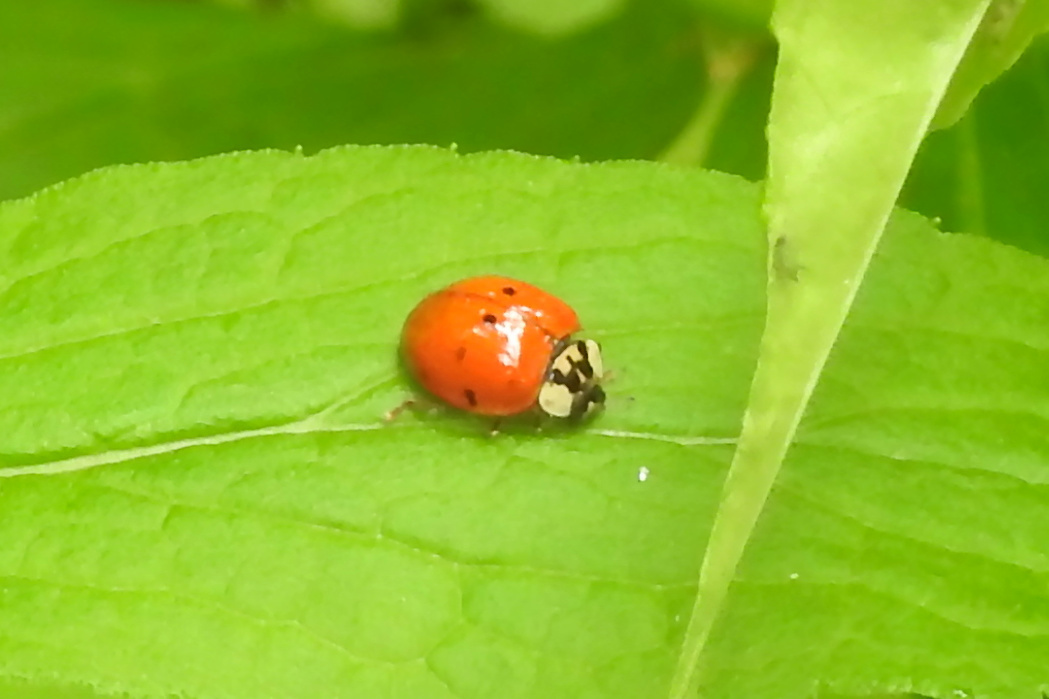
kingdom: Animalia
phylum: Arthropoda
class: Insecta
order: Coleoptera
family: Coccinellidae
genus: Harmonia
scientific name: Harmonia axyridis
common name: Harlequin ladybird
